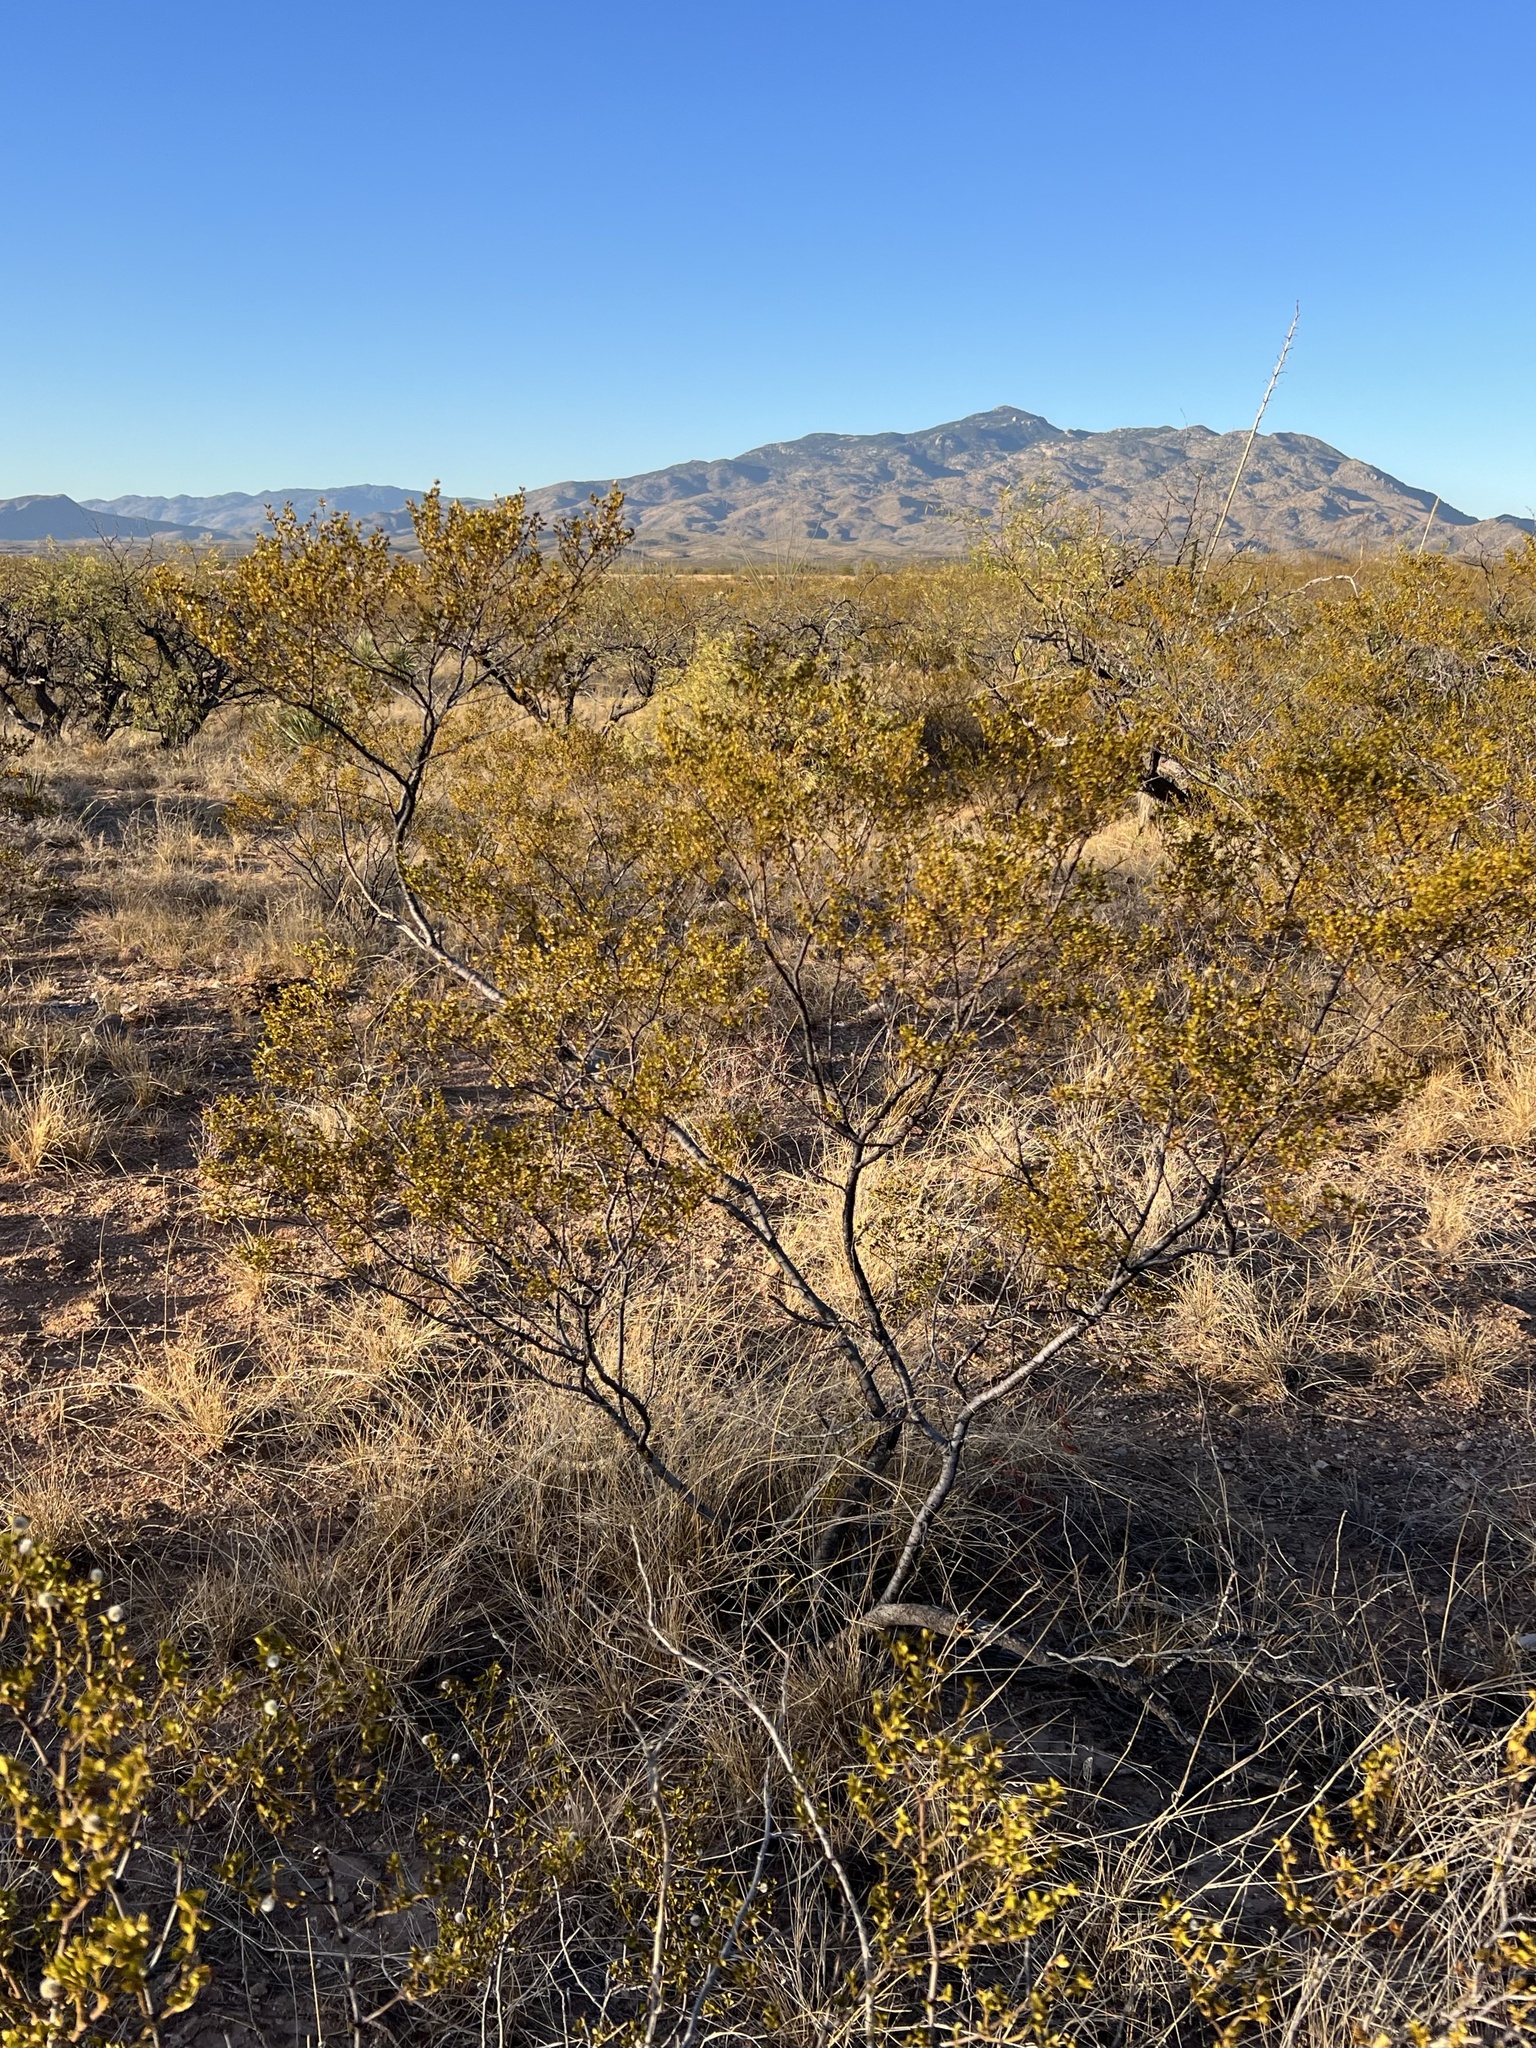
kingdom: Plantae
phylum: Tracheophyta
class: Magnoliopsida
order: Zygophyllales
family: Zygophyllaceae
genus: Larrea
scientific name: Larrea tridentata
